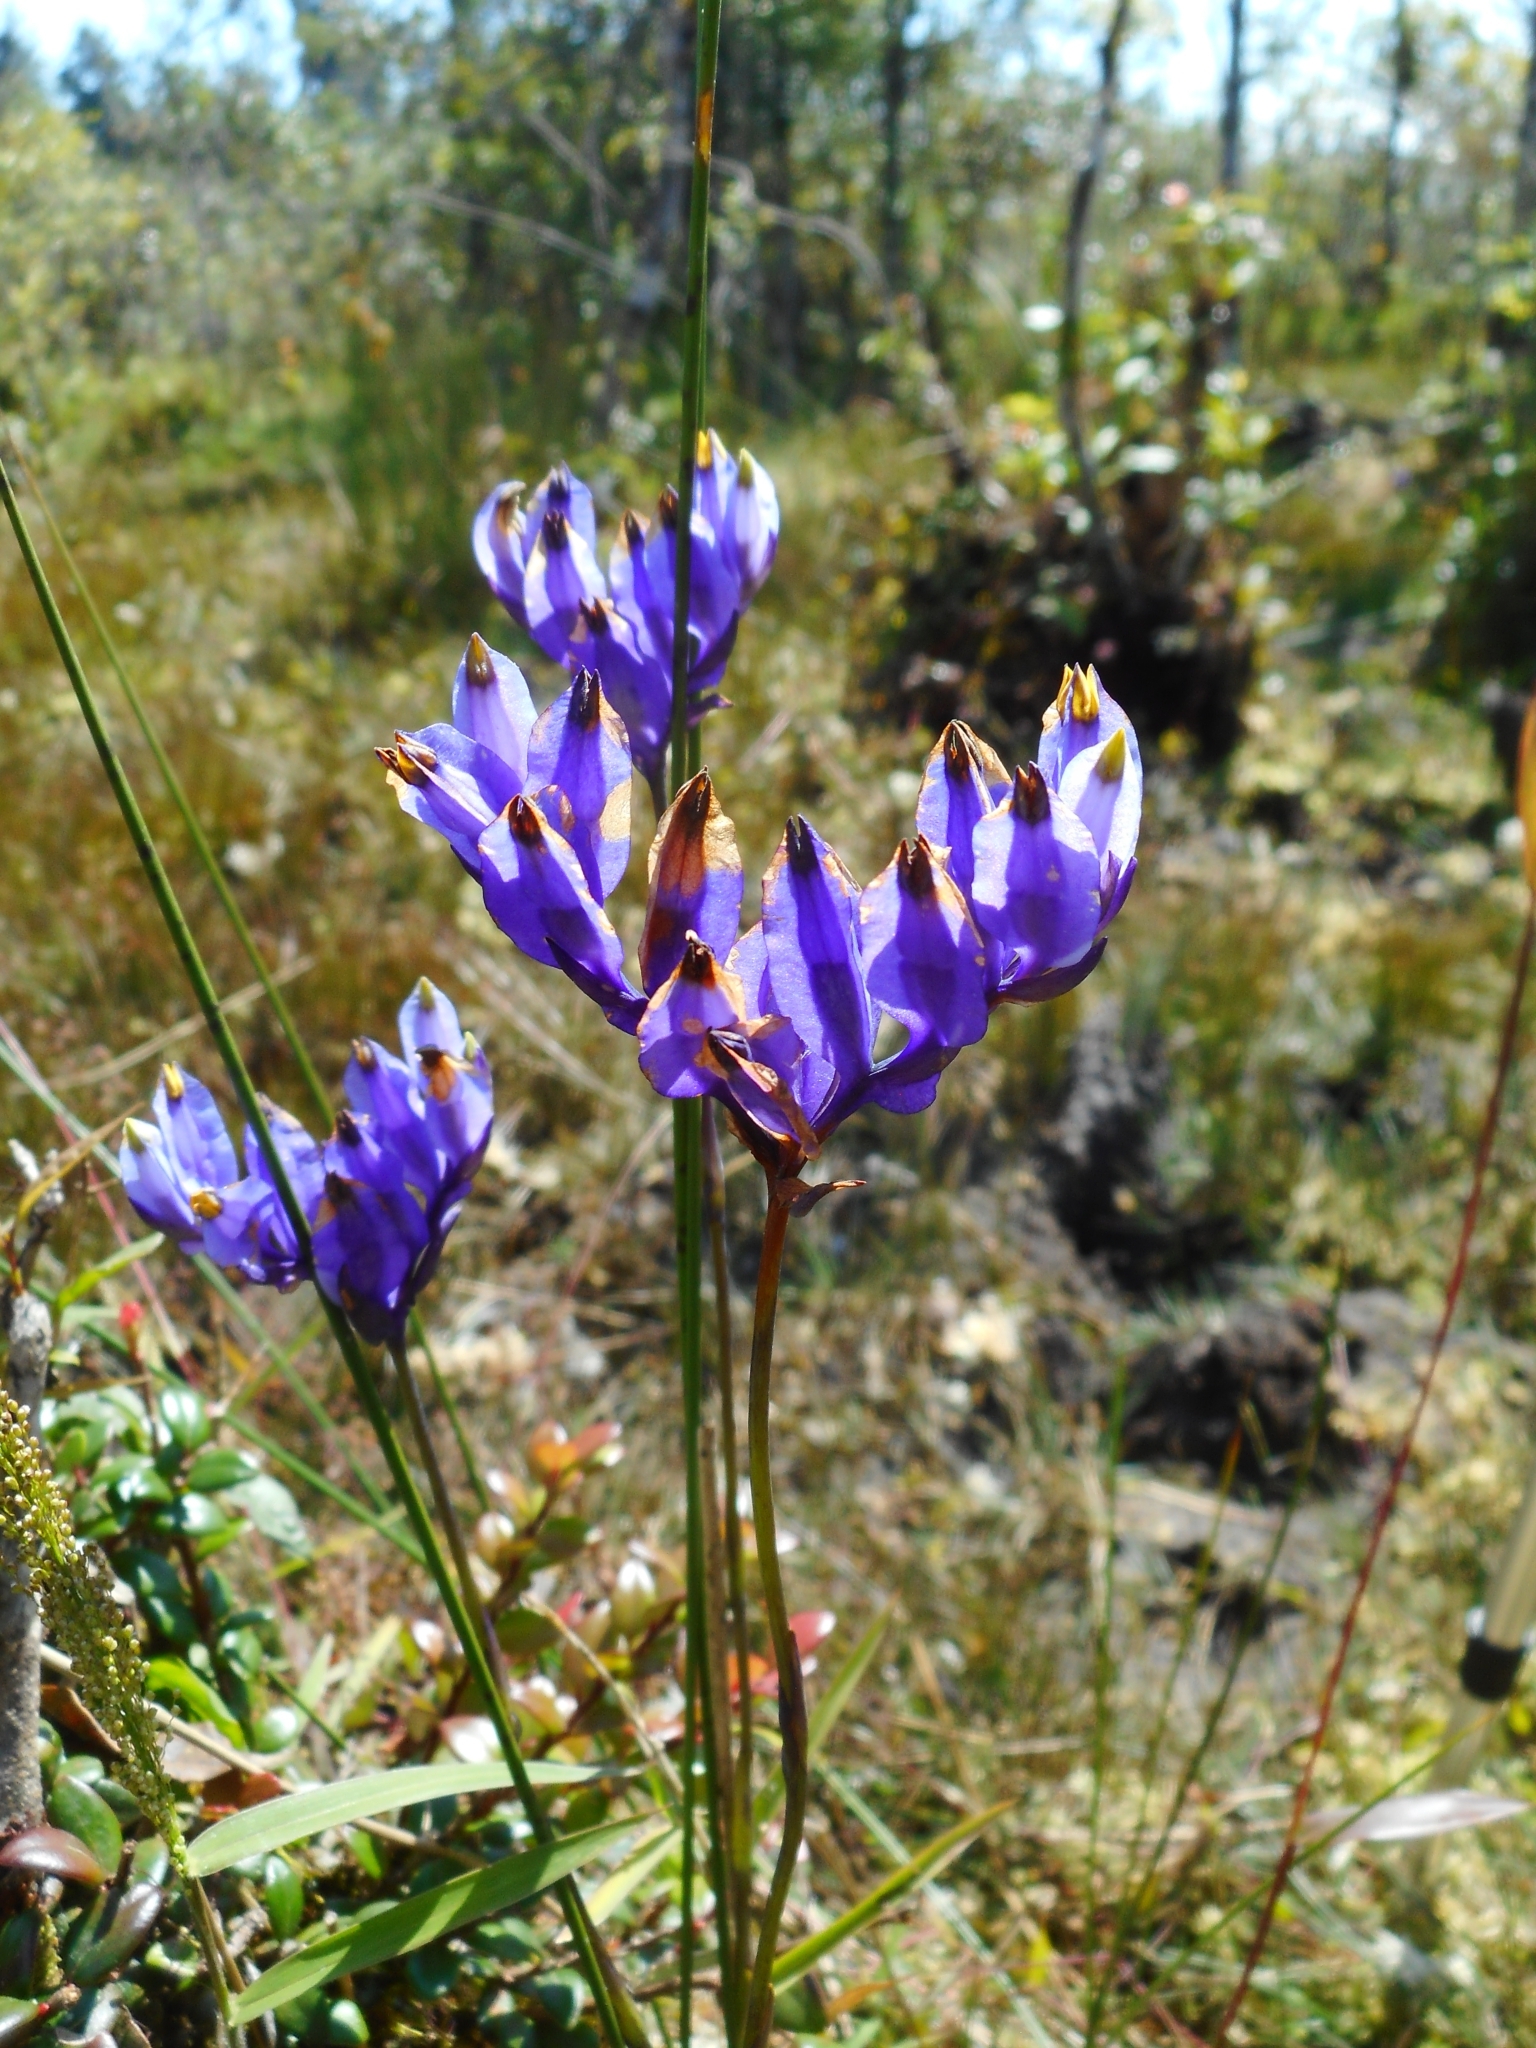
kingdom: Plantae
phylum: Tracheophyta
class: Liliopsida
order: Dioscoreales
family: Burmanniaceae
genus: Burmannia
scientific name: Burmannia disticha
